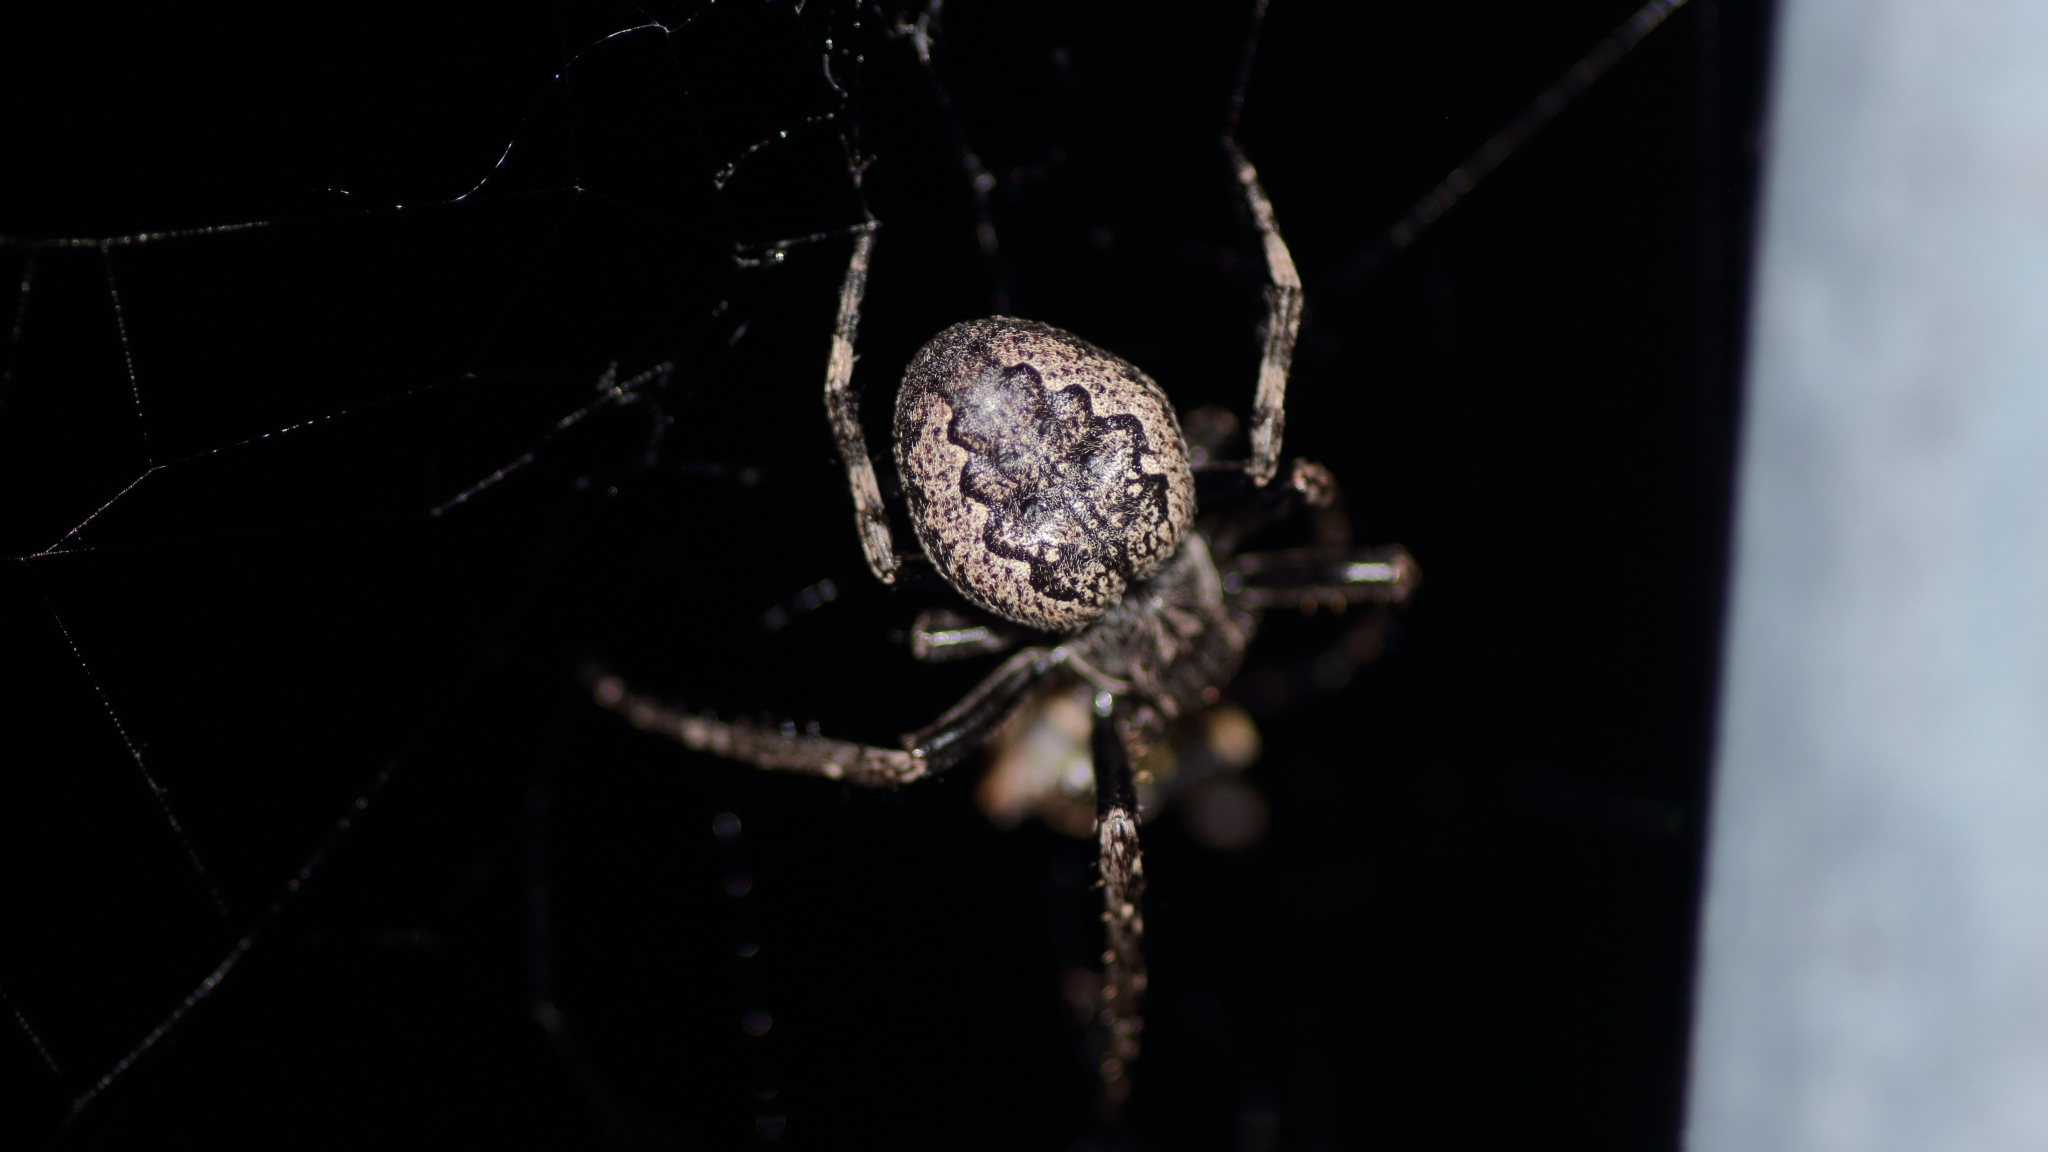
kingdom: Animalia
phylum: Arthropoda
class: Arachnida
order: Araneae
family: Araneidae
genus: Nuctenea
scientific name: Nuctenea umbratica
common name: Toad spider
